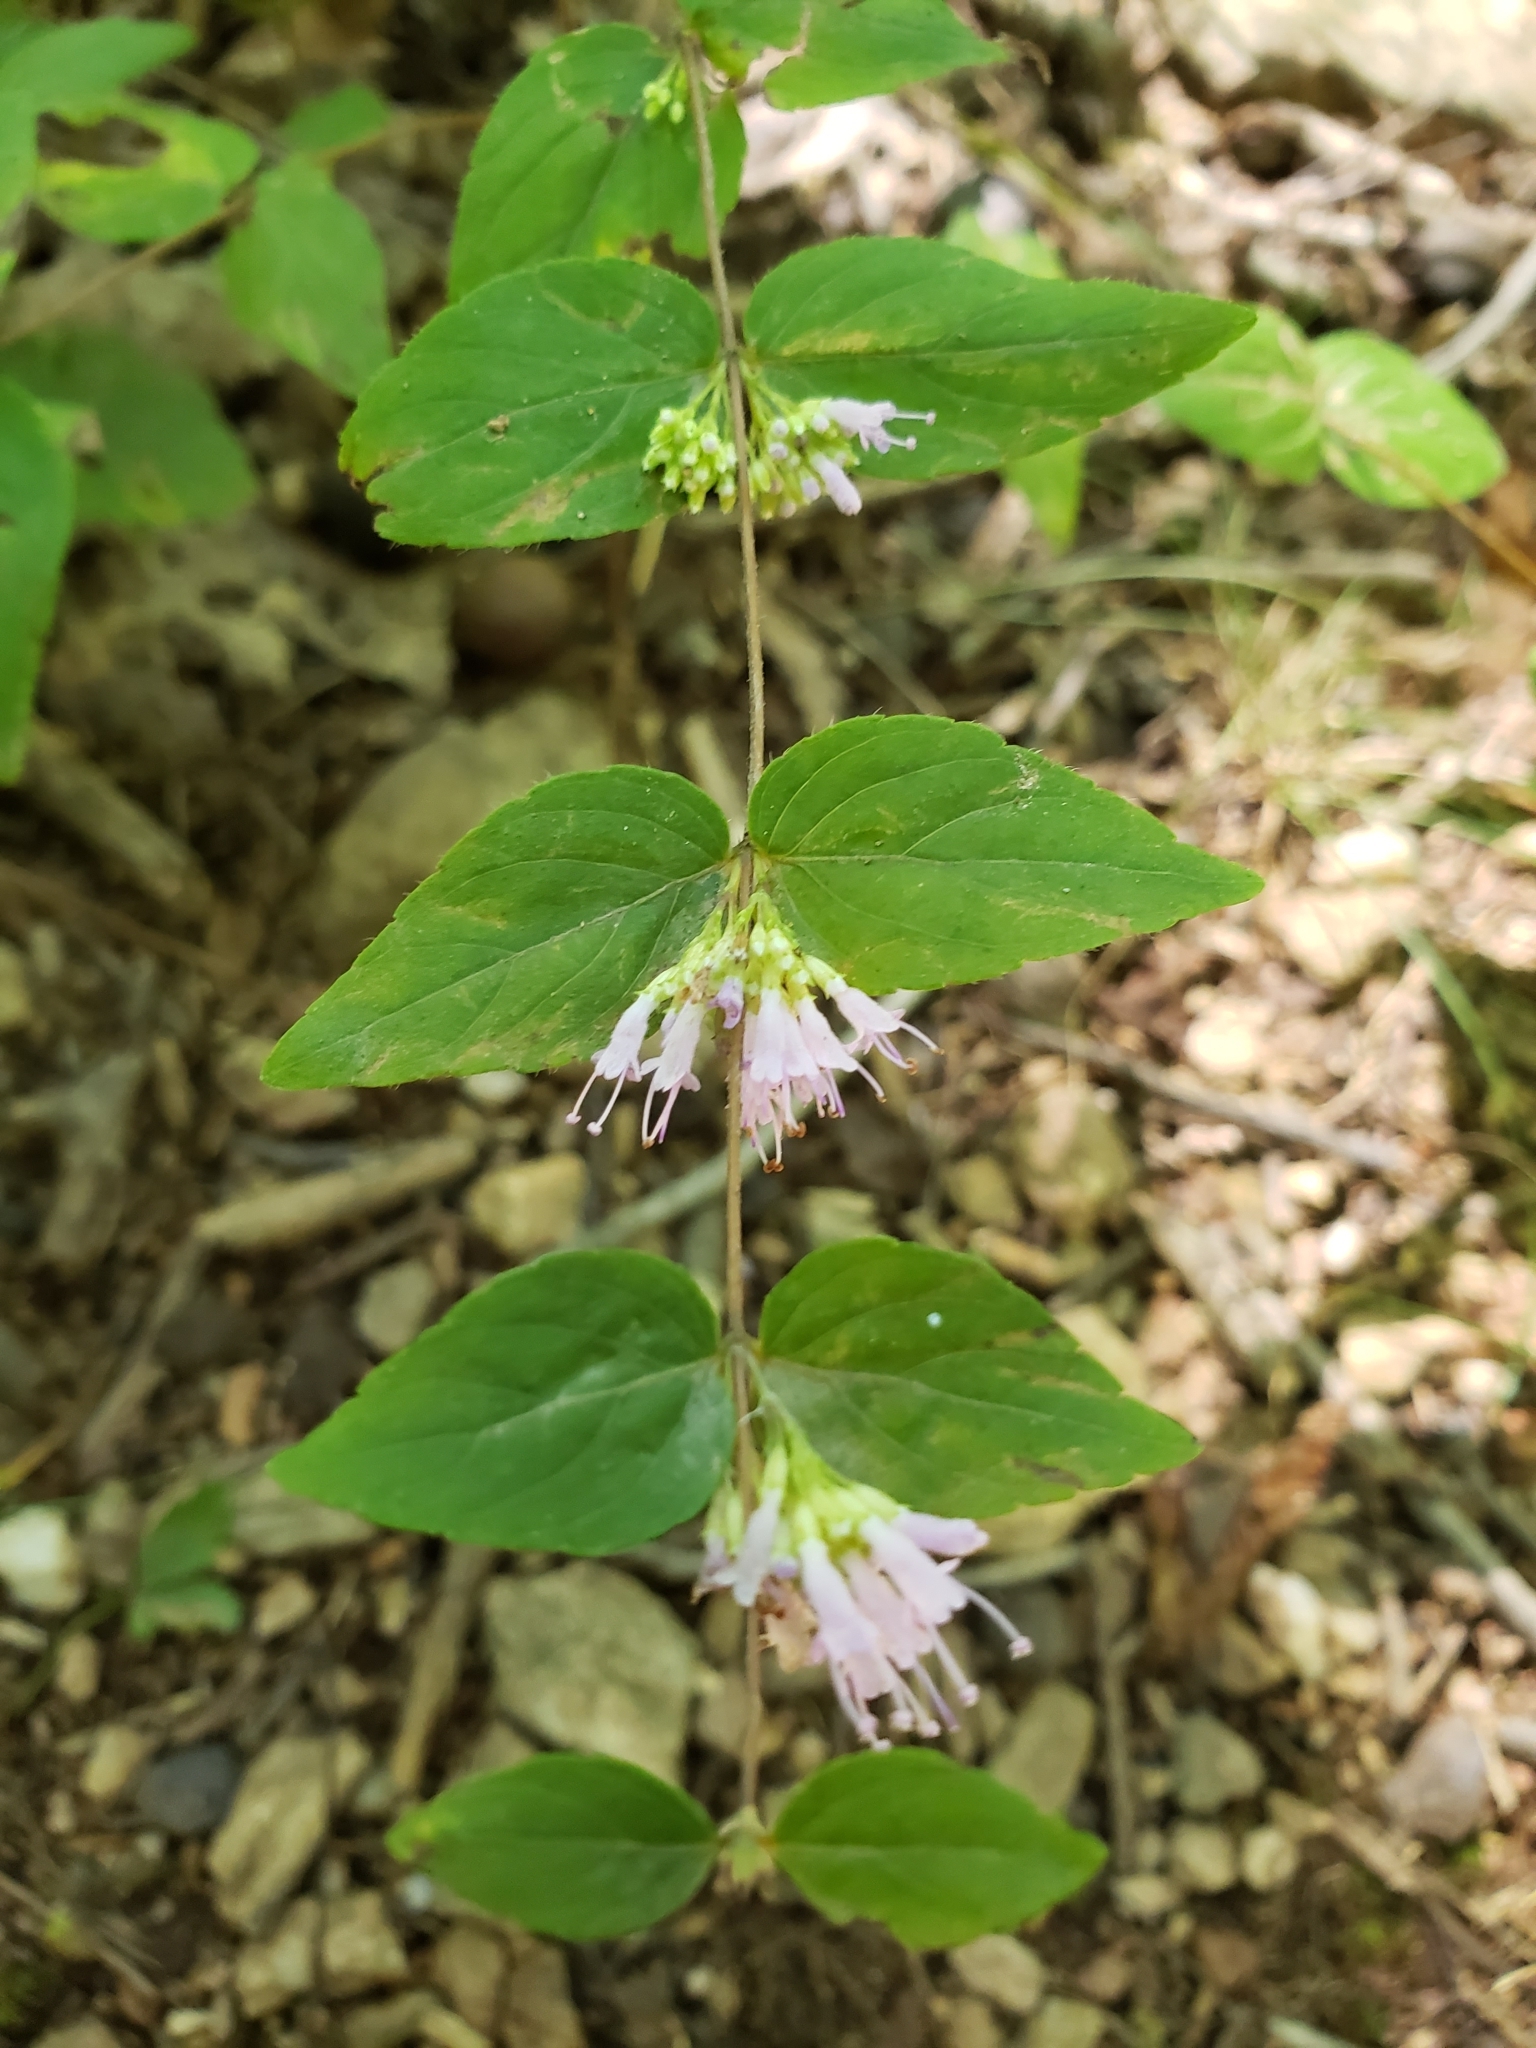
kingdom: Plantae
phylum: Tracheophyta
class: Magnoliopsida
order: Lamiales
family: Lamiaceae
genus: Cunila
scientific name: Cunila origanoides
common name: American dittany
